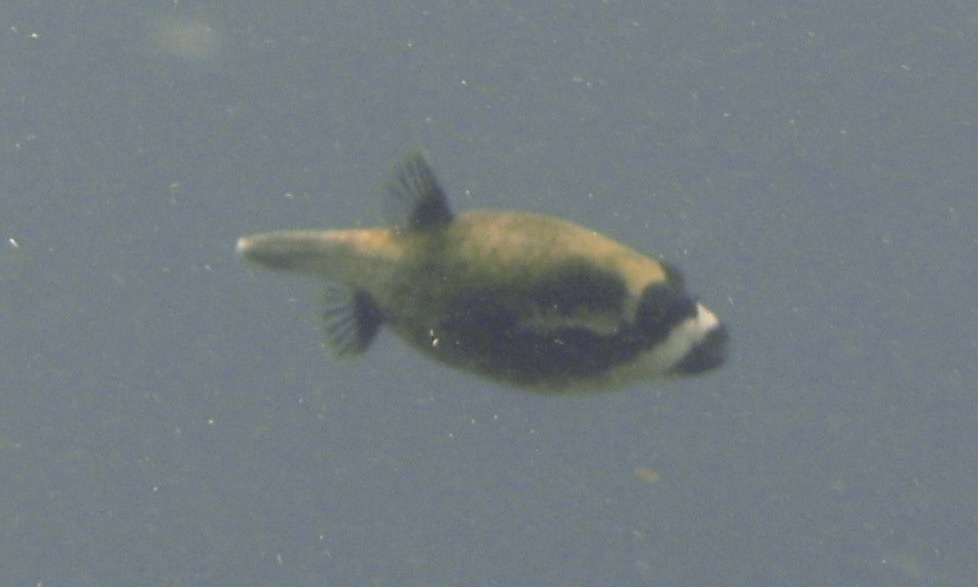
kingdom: Animalia
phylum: Chordata
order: Tetraodontiformes
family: Tetraodontidae
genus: Arothron
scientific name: Arothron diadematus
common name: Masked puffer
